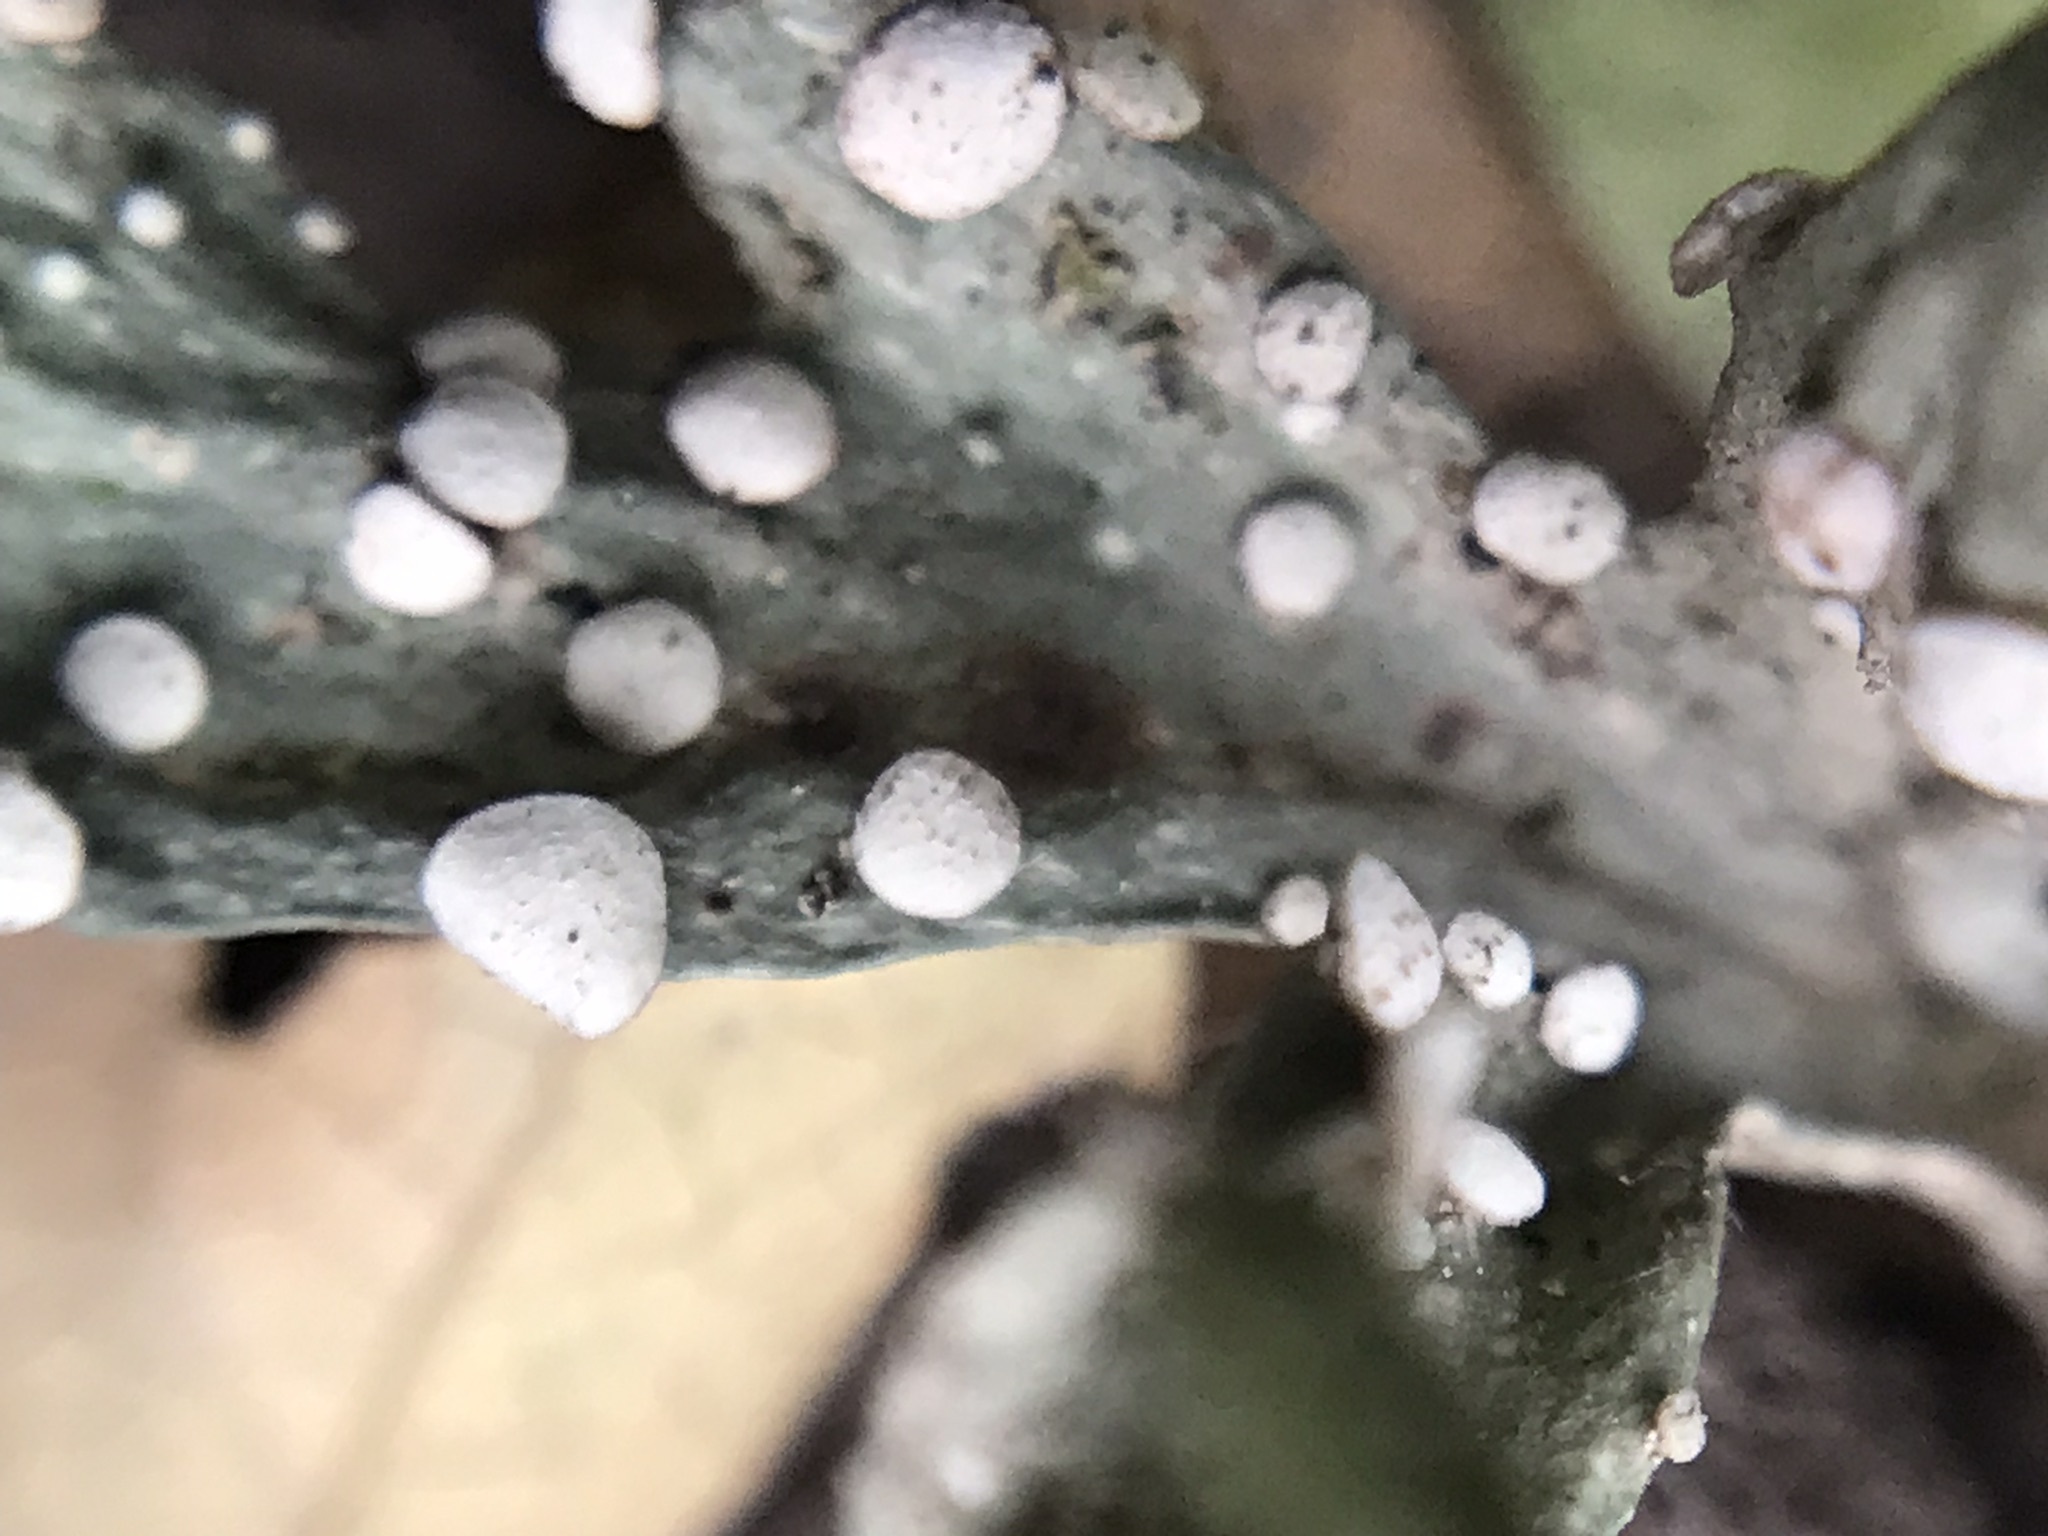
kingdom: Fungi
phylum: Ascomycota
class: Lecanoromycetes
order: Lecanorales
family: Ramalinaceae
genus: Ramalina
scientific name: Ramalina celastri
